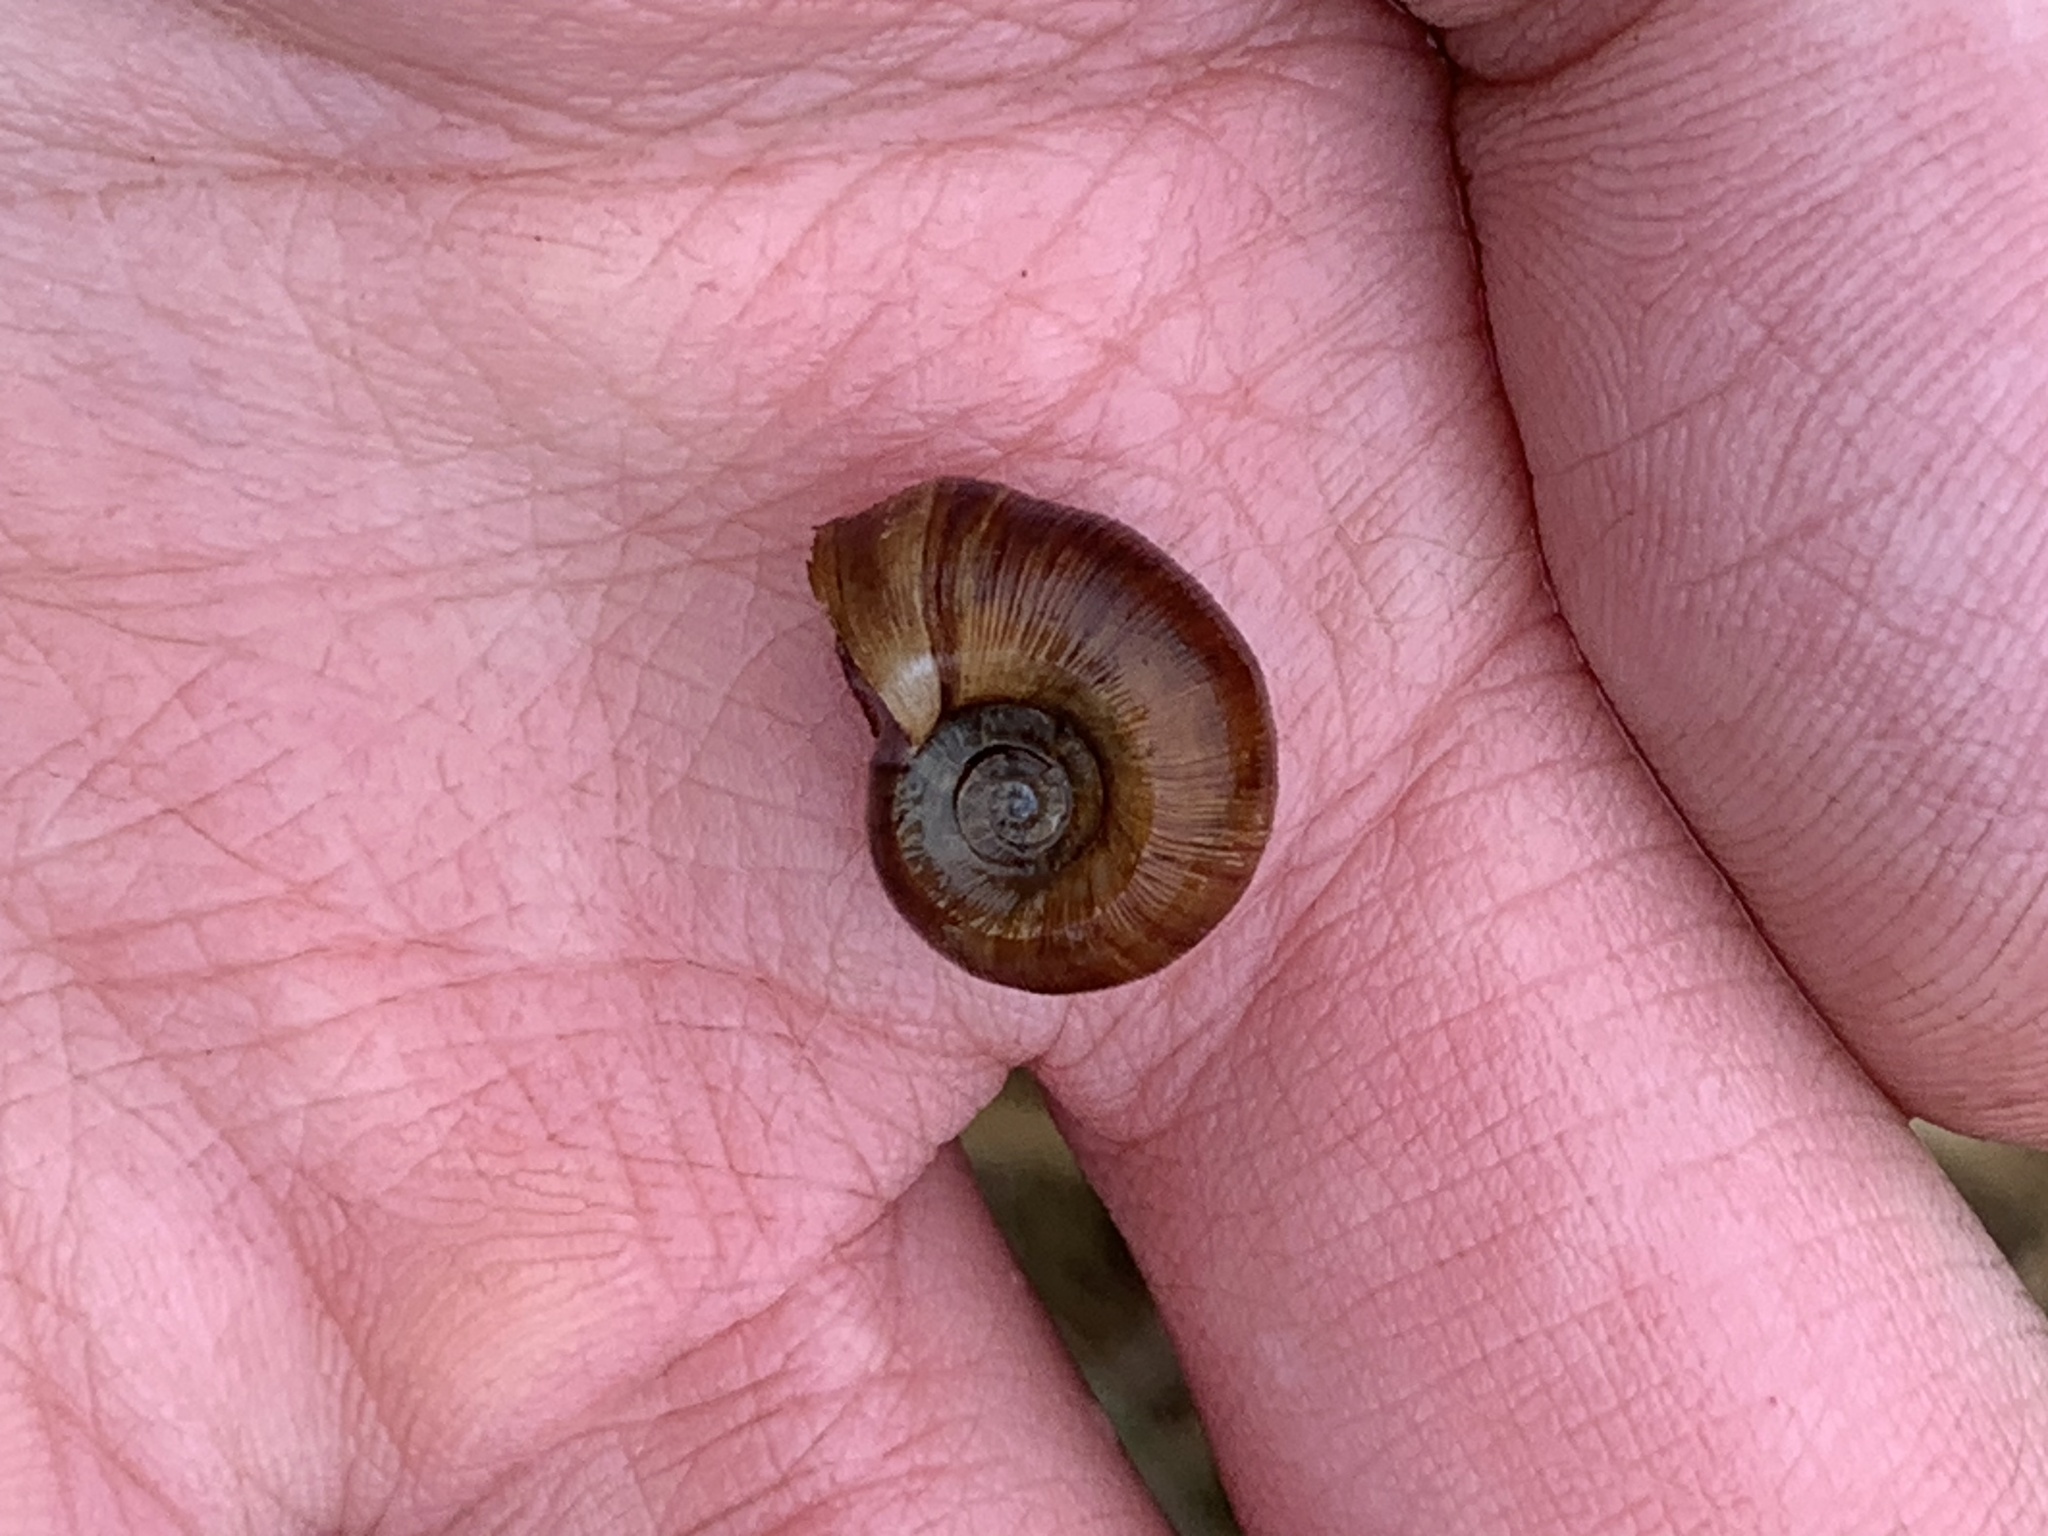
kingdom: Animalia
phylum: Mollusca
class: Gastropoda
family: Planorbidae
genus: Planorbella
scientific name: Planorbella trivolvis
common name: Marsh rams-horn
